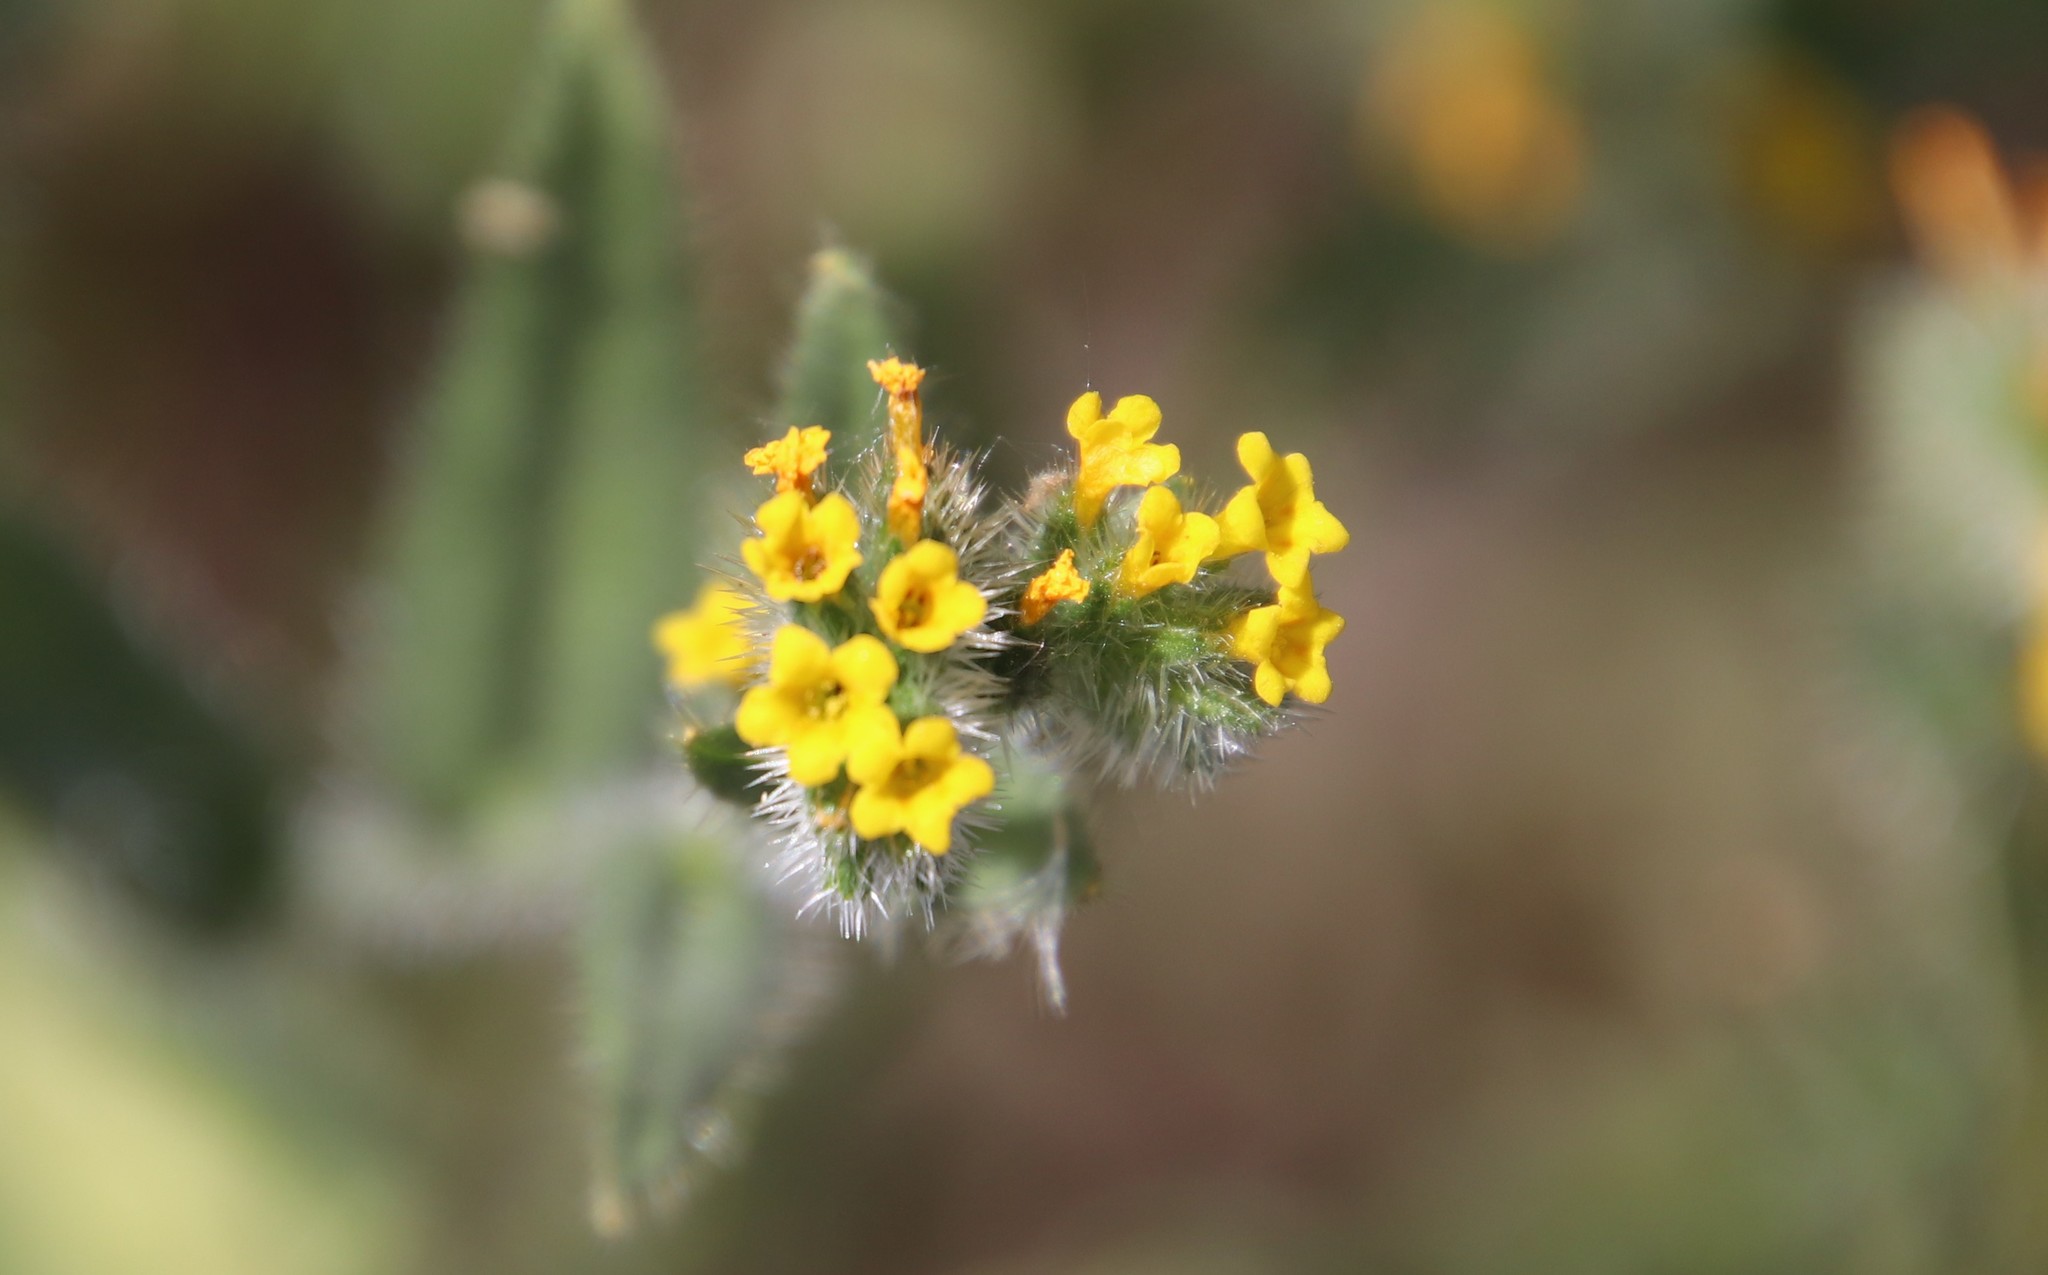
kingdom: Plantae
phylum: Tracheophyta
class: Magnoliopsida
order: Boraginales
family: Boraginaceae
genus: Amsinckia
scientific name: Amsinckia menziesii
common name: Menzies' fiddleneck
